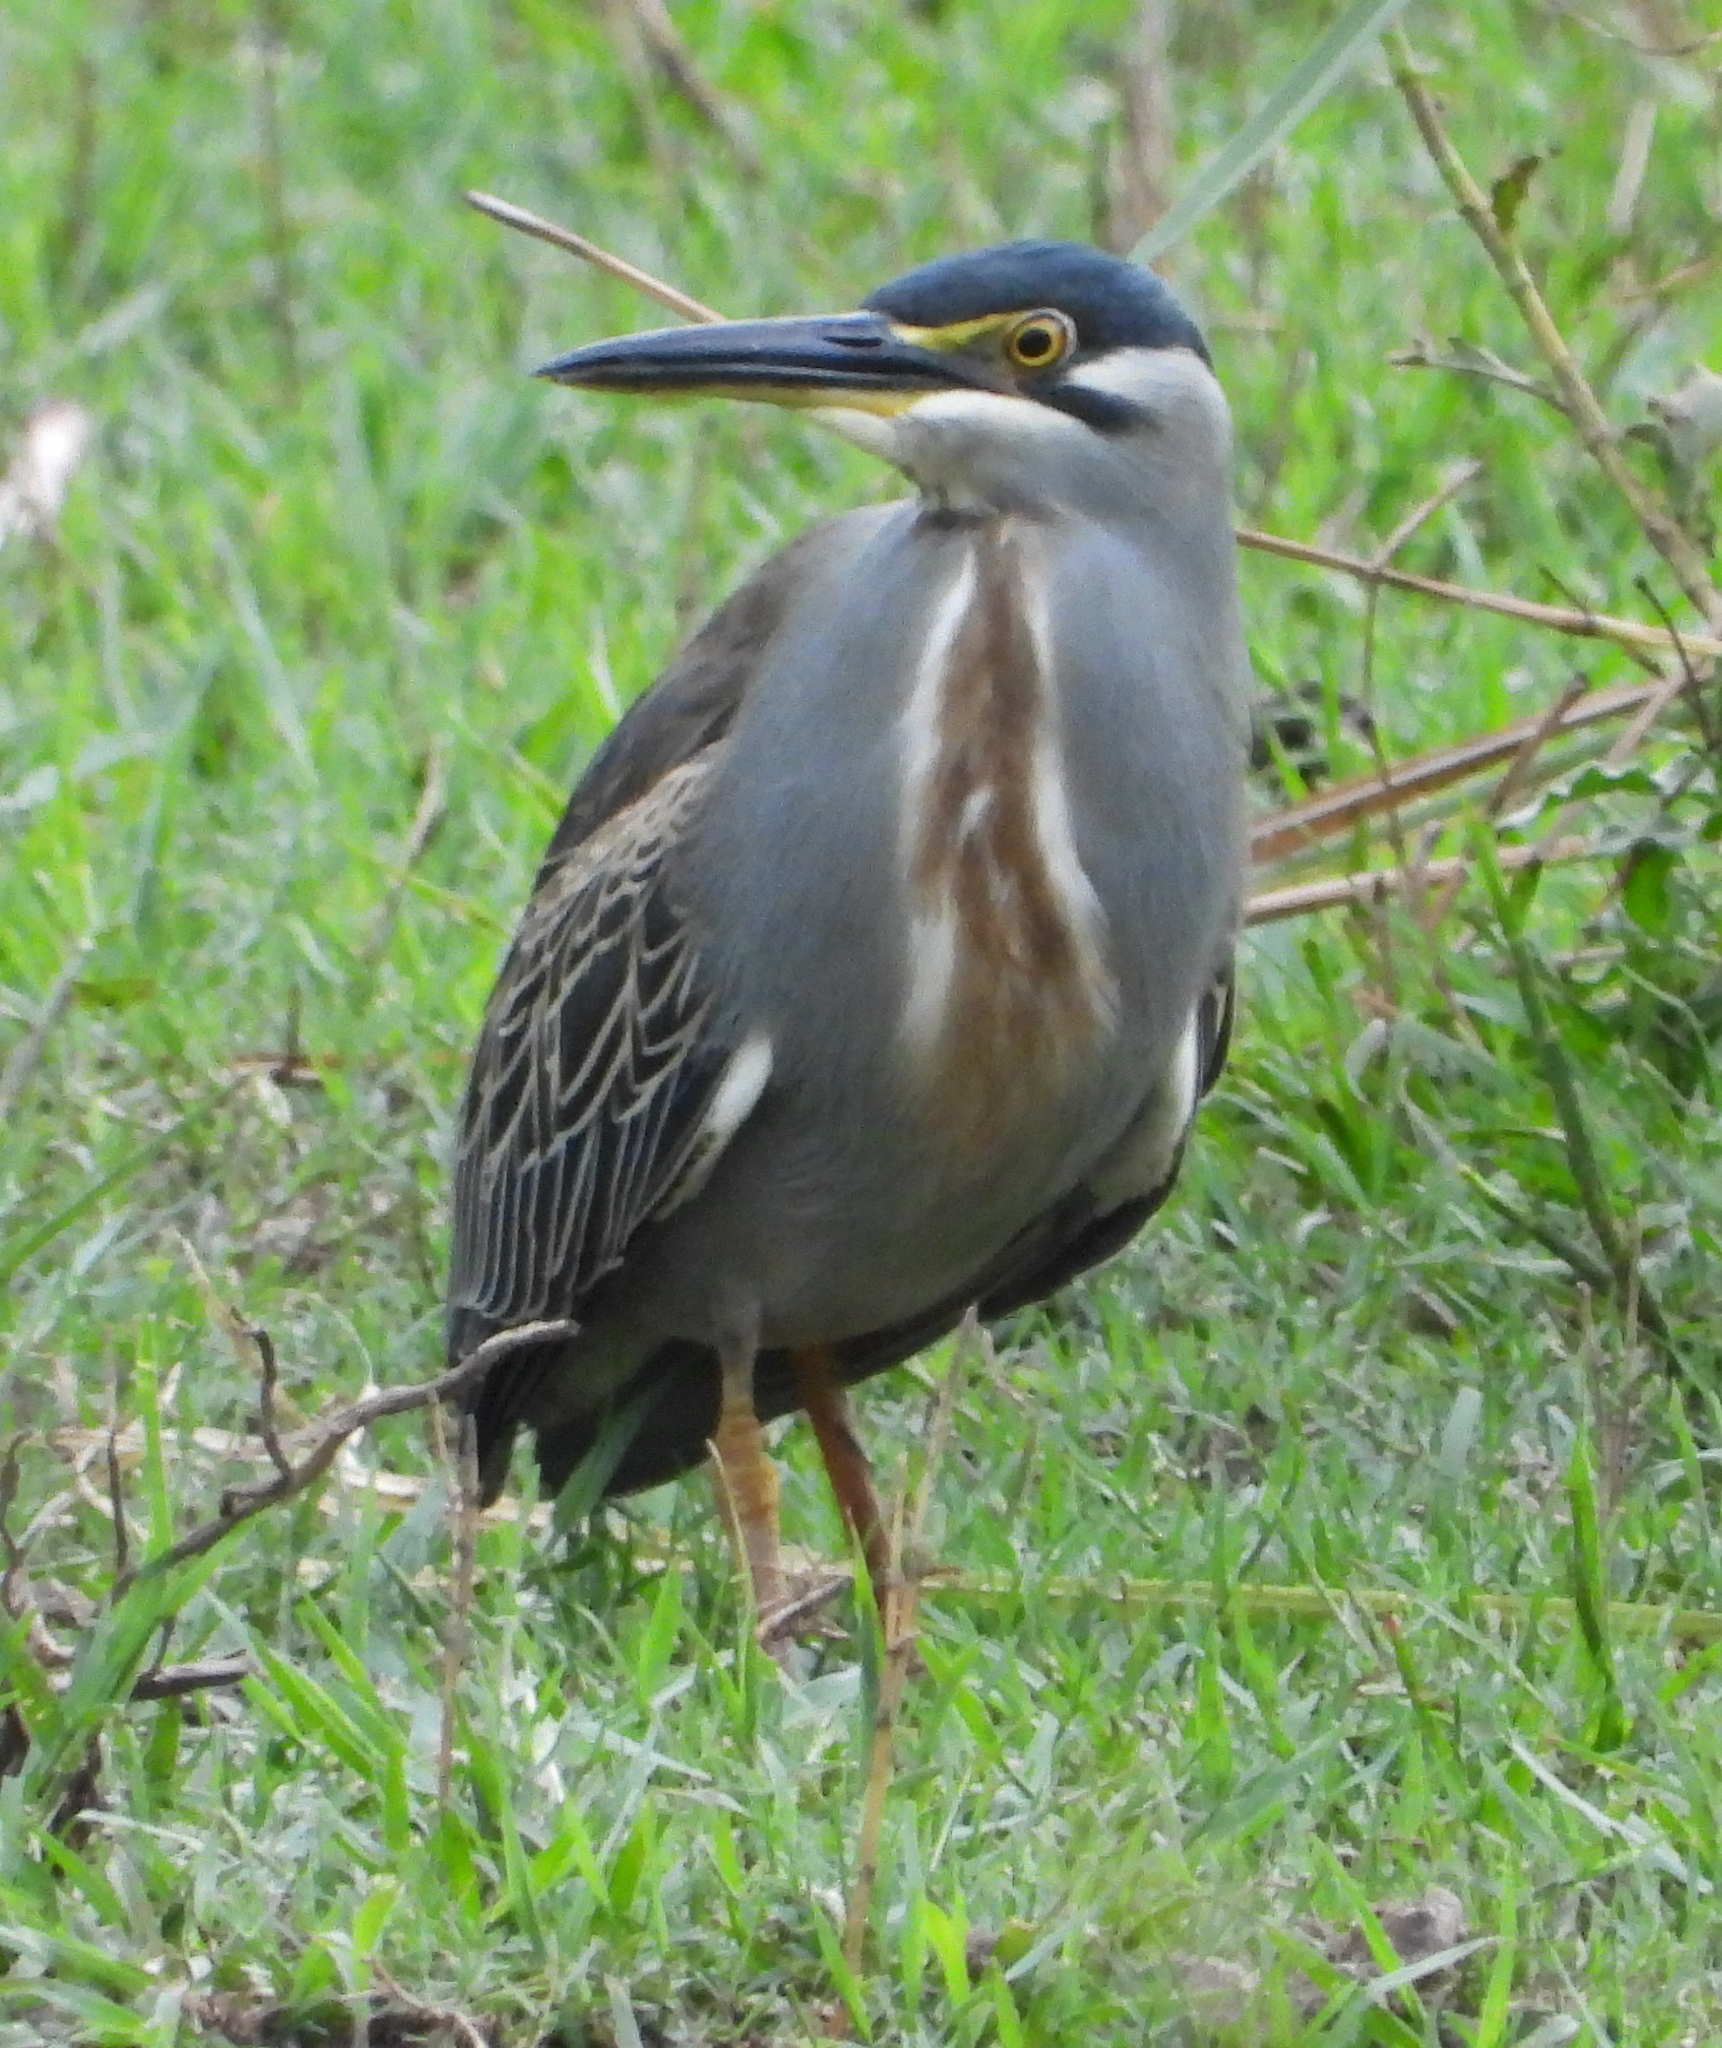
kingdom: Animalia
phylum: Chordata
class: Aves
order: Pelecaniformes
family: Ardeidae
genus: Butorides
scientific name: Butorides striata
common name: Striated heron
